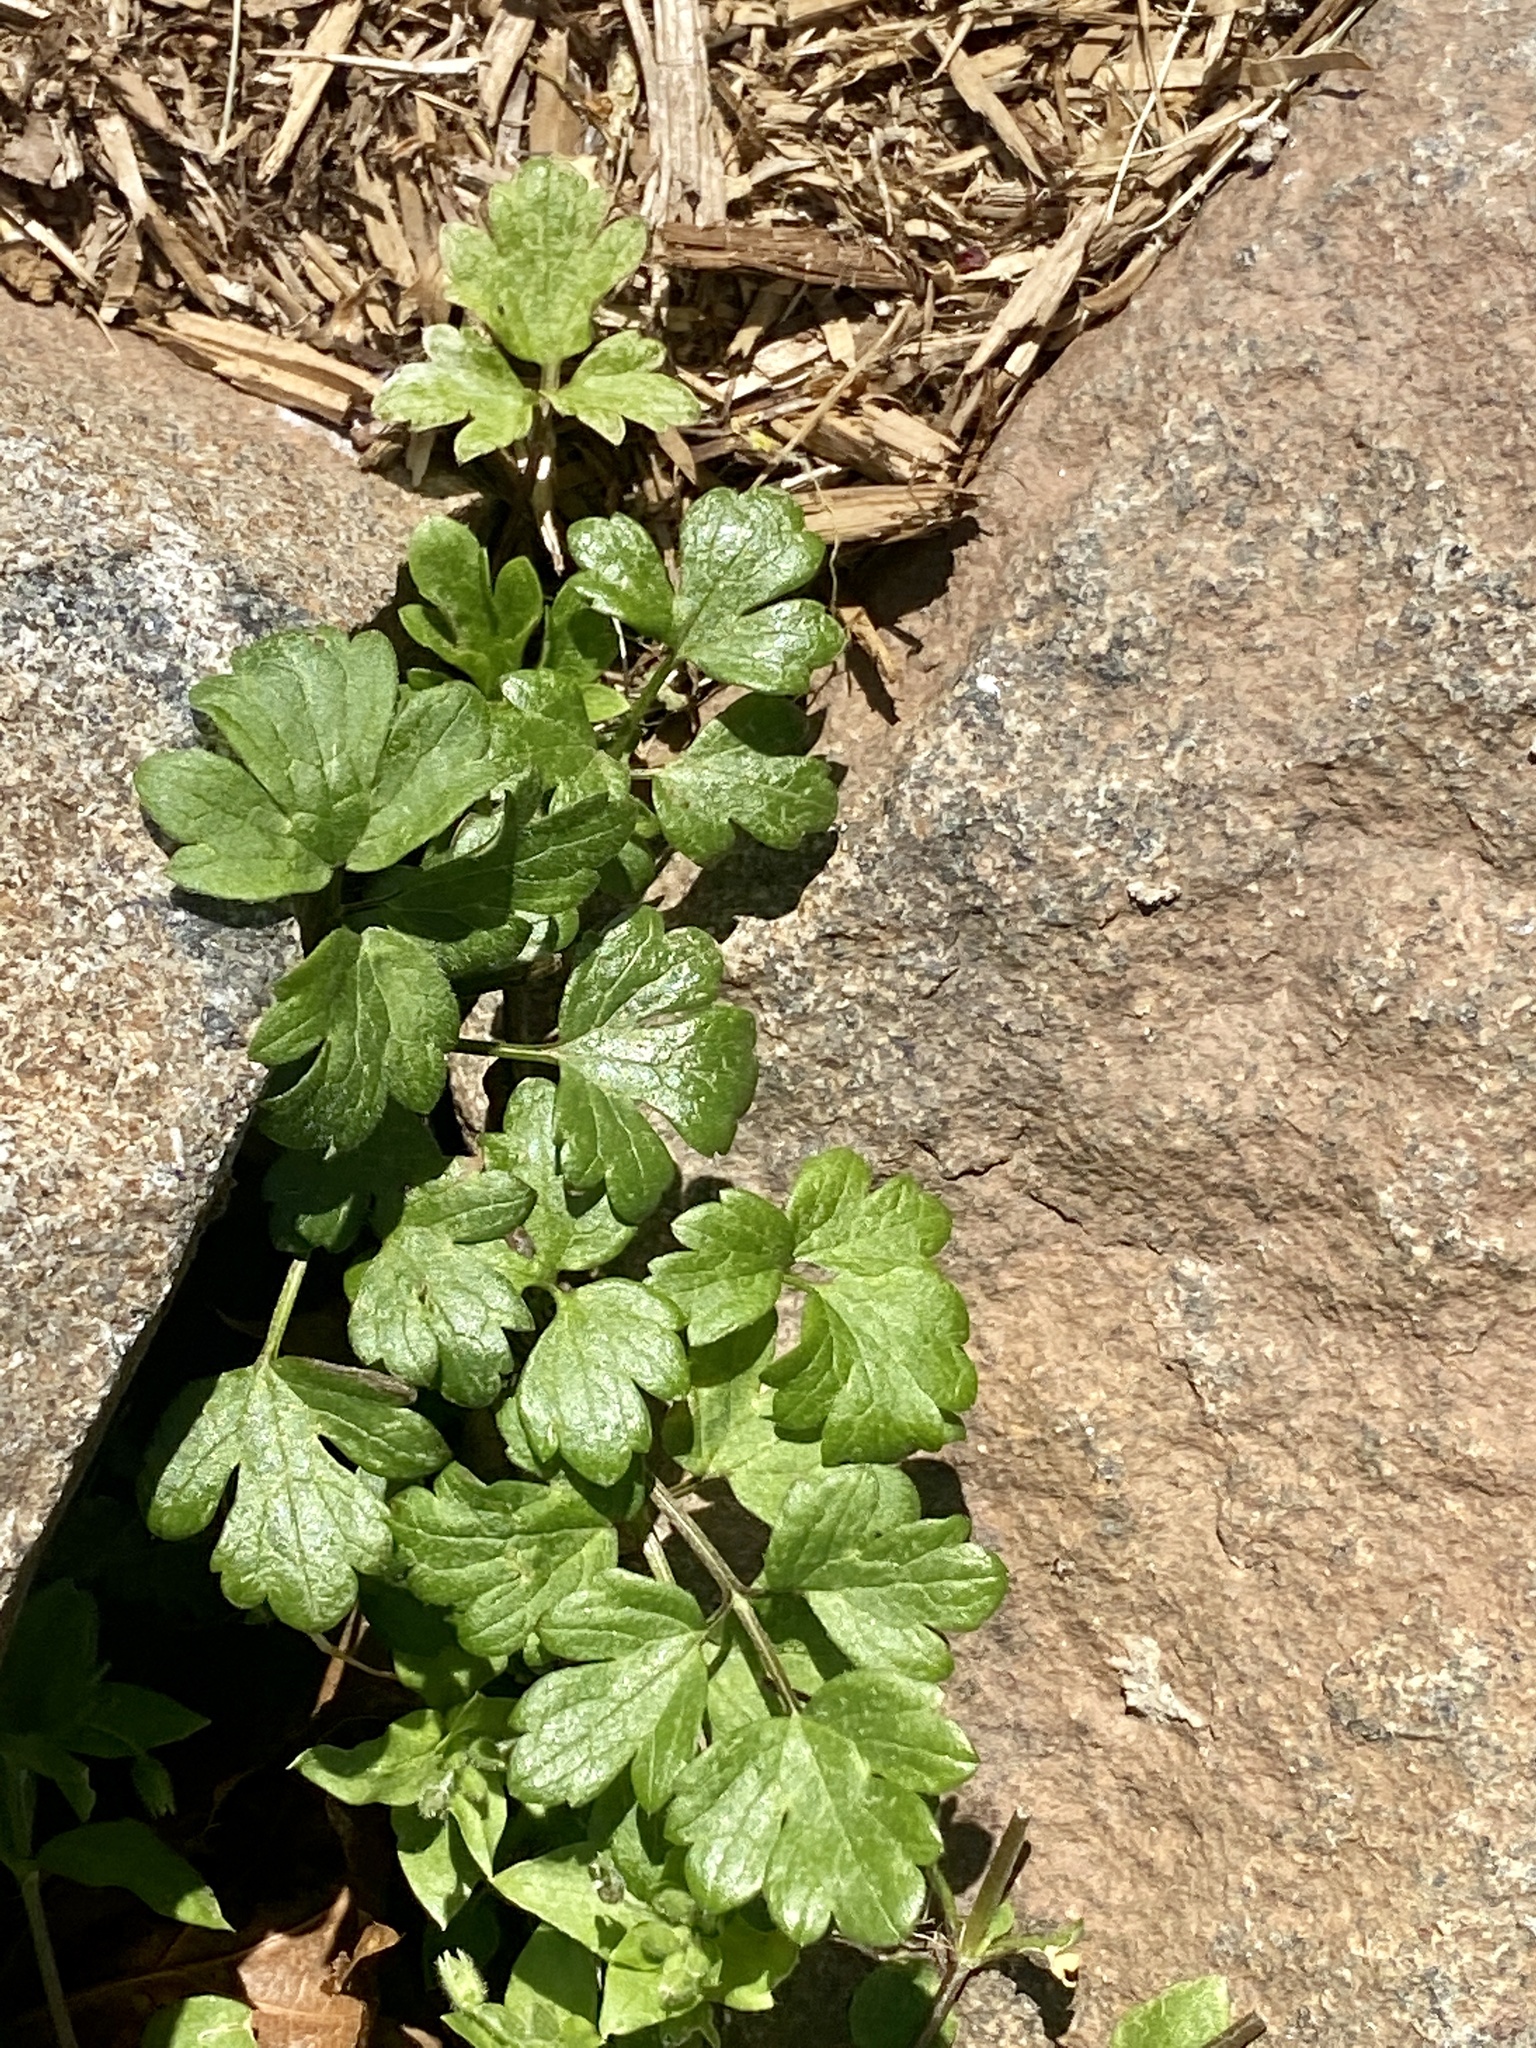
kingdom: Plantae
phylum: Tracheophyta
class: Magnoliopsida
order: Ranunculales
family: Ranunculaceae
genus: Ranunculus
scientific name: Ranunculus repens
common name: Creeping buttercup
